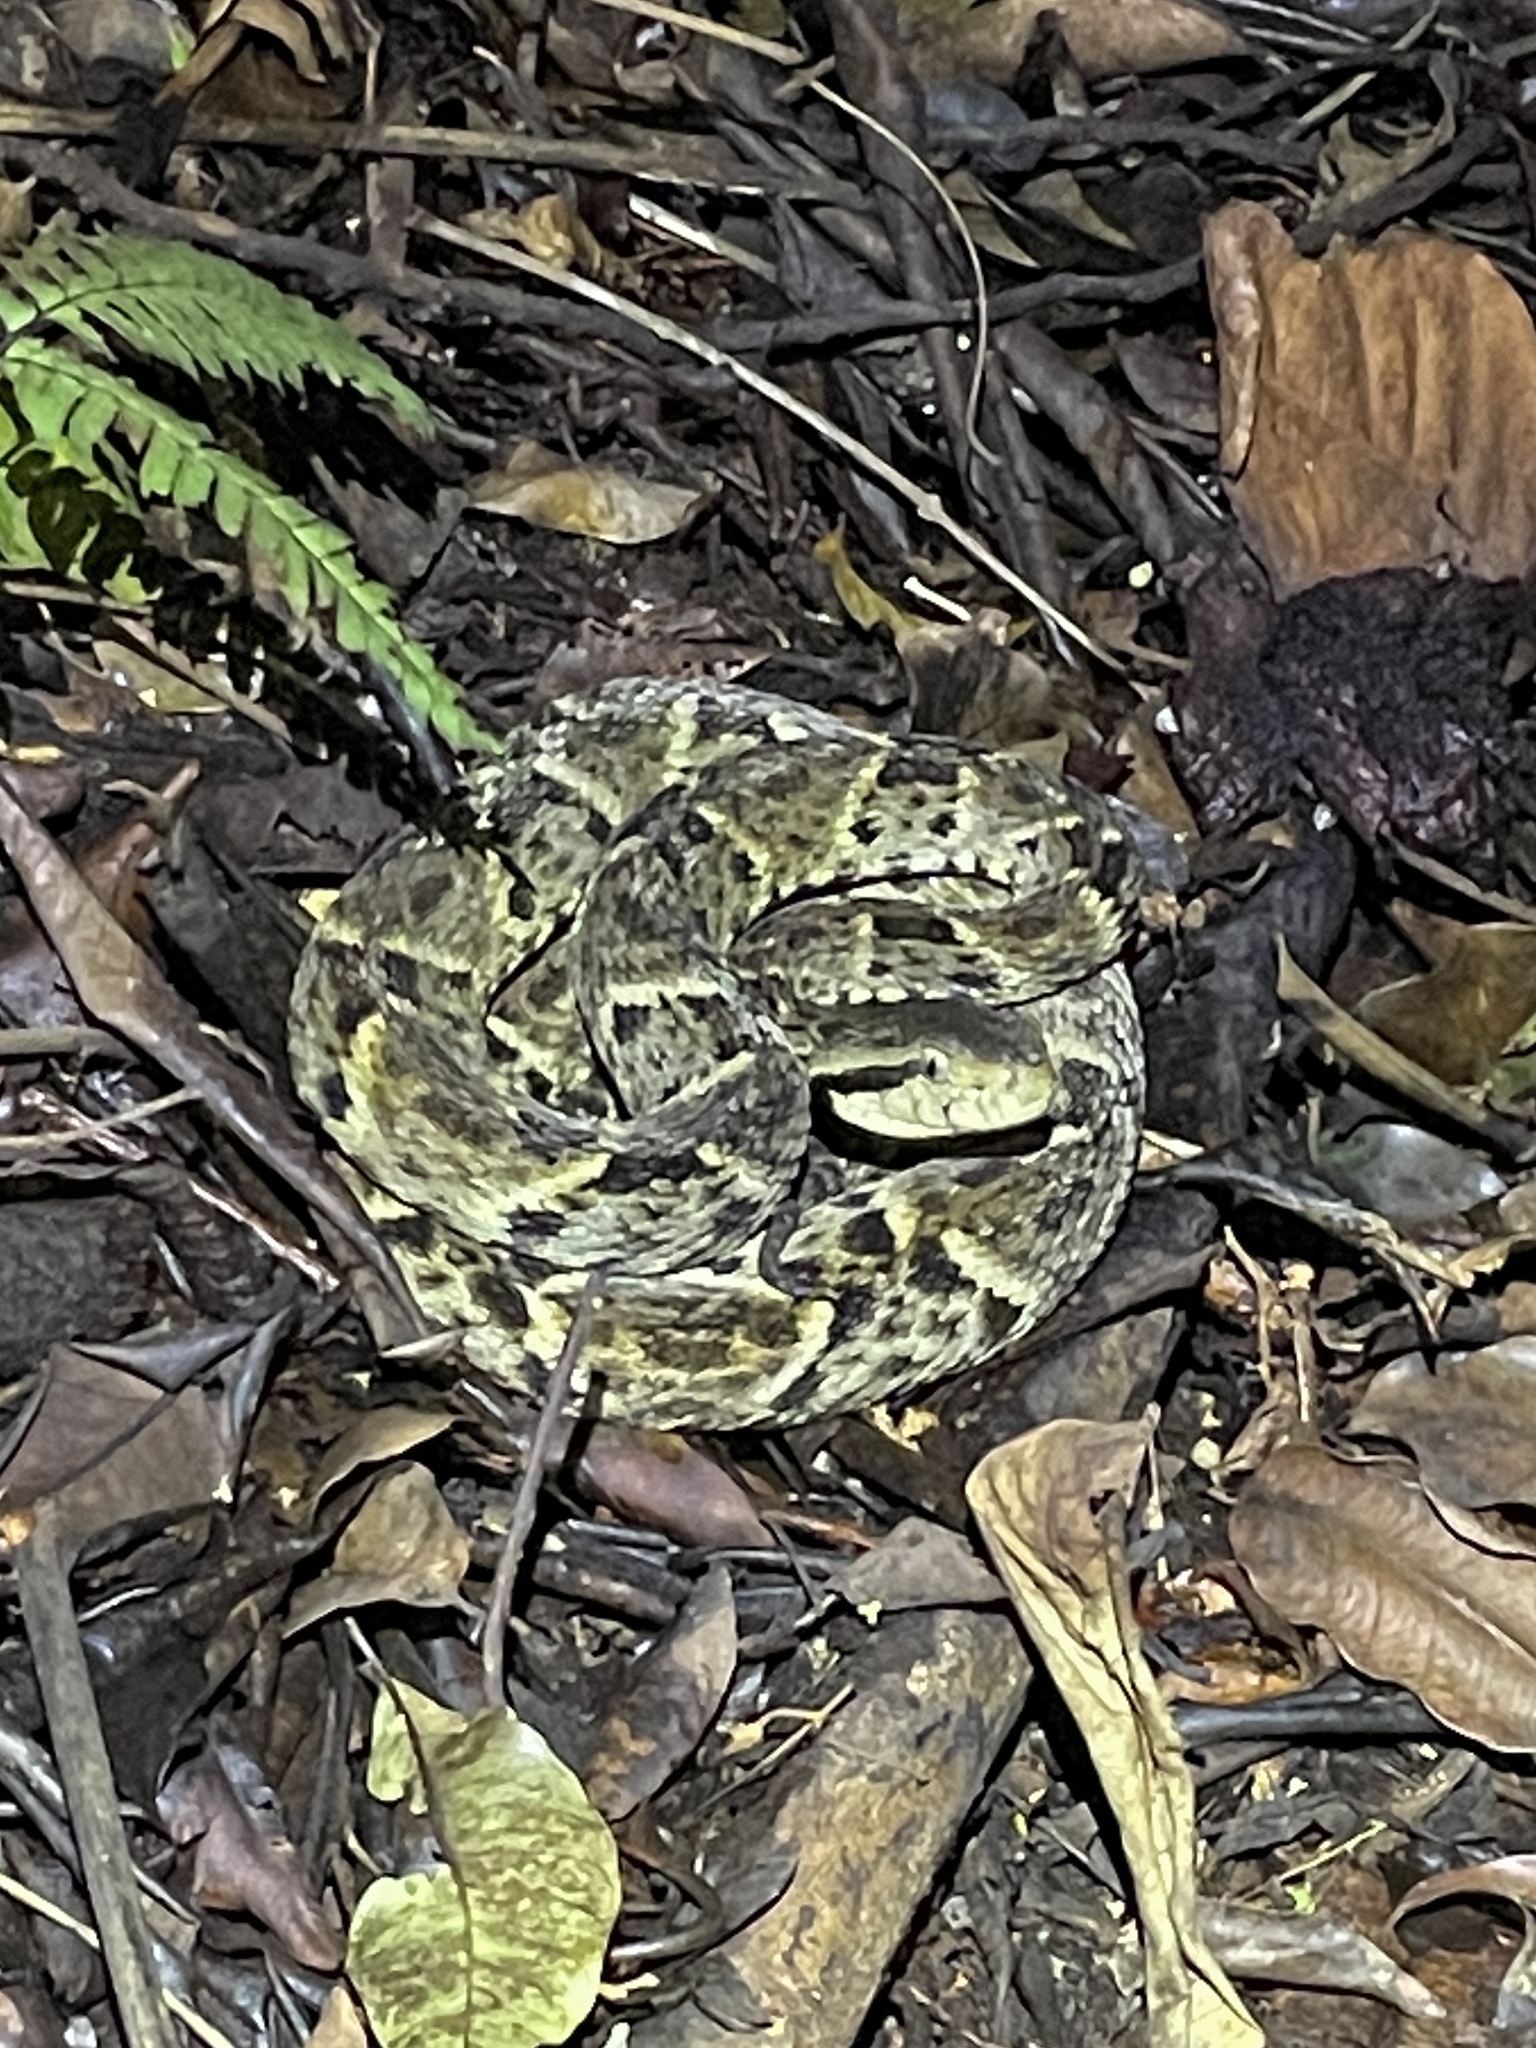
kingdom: Animalia
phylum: Chordata
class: Squamata
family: Viperidae
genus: Bothrops
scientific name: Bothrops atrox
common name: Common lancehead
